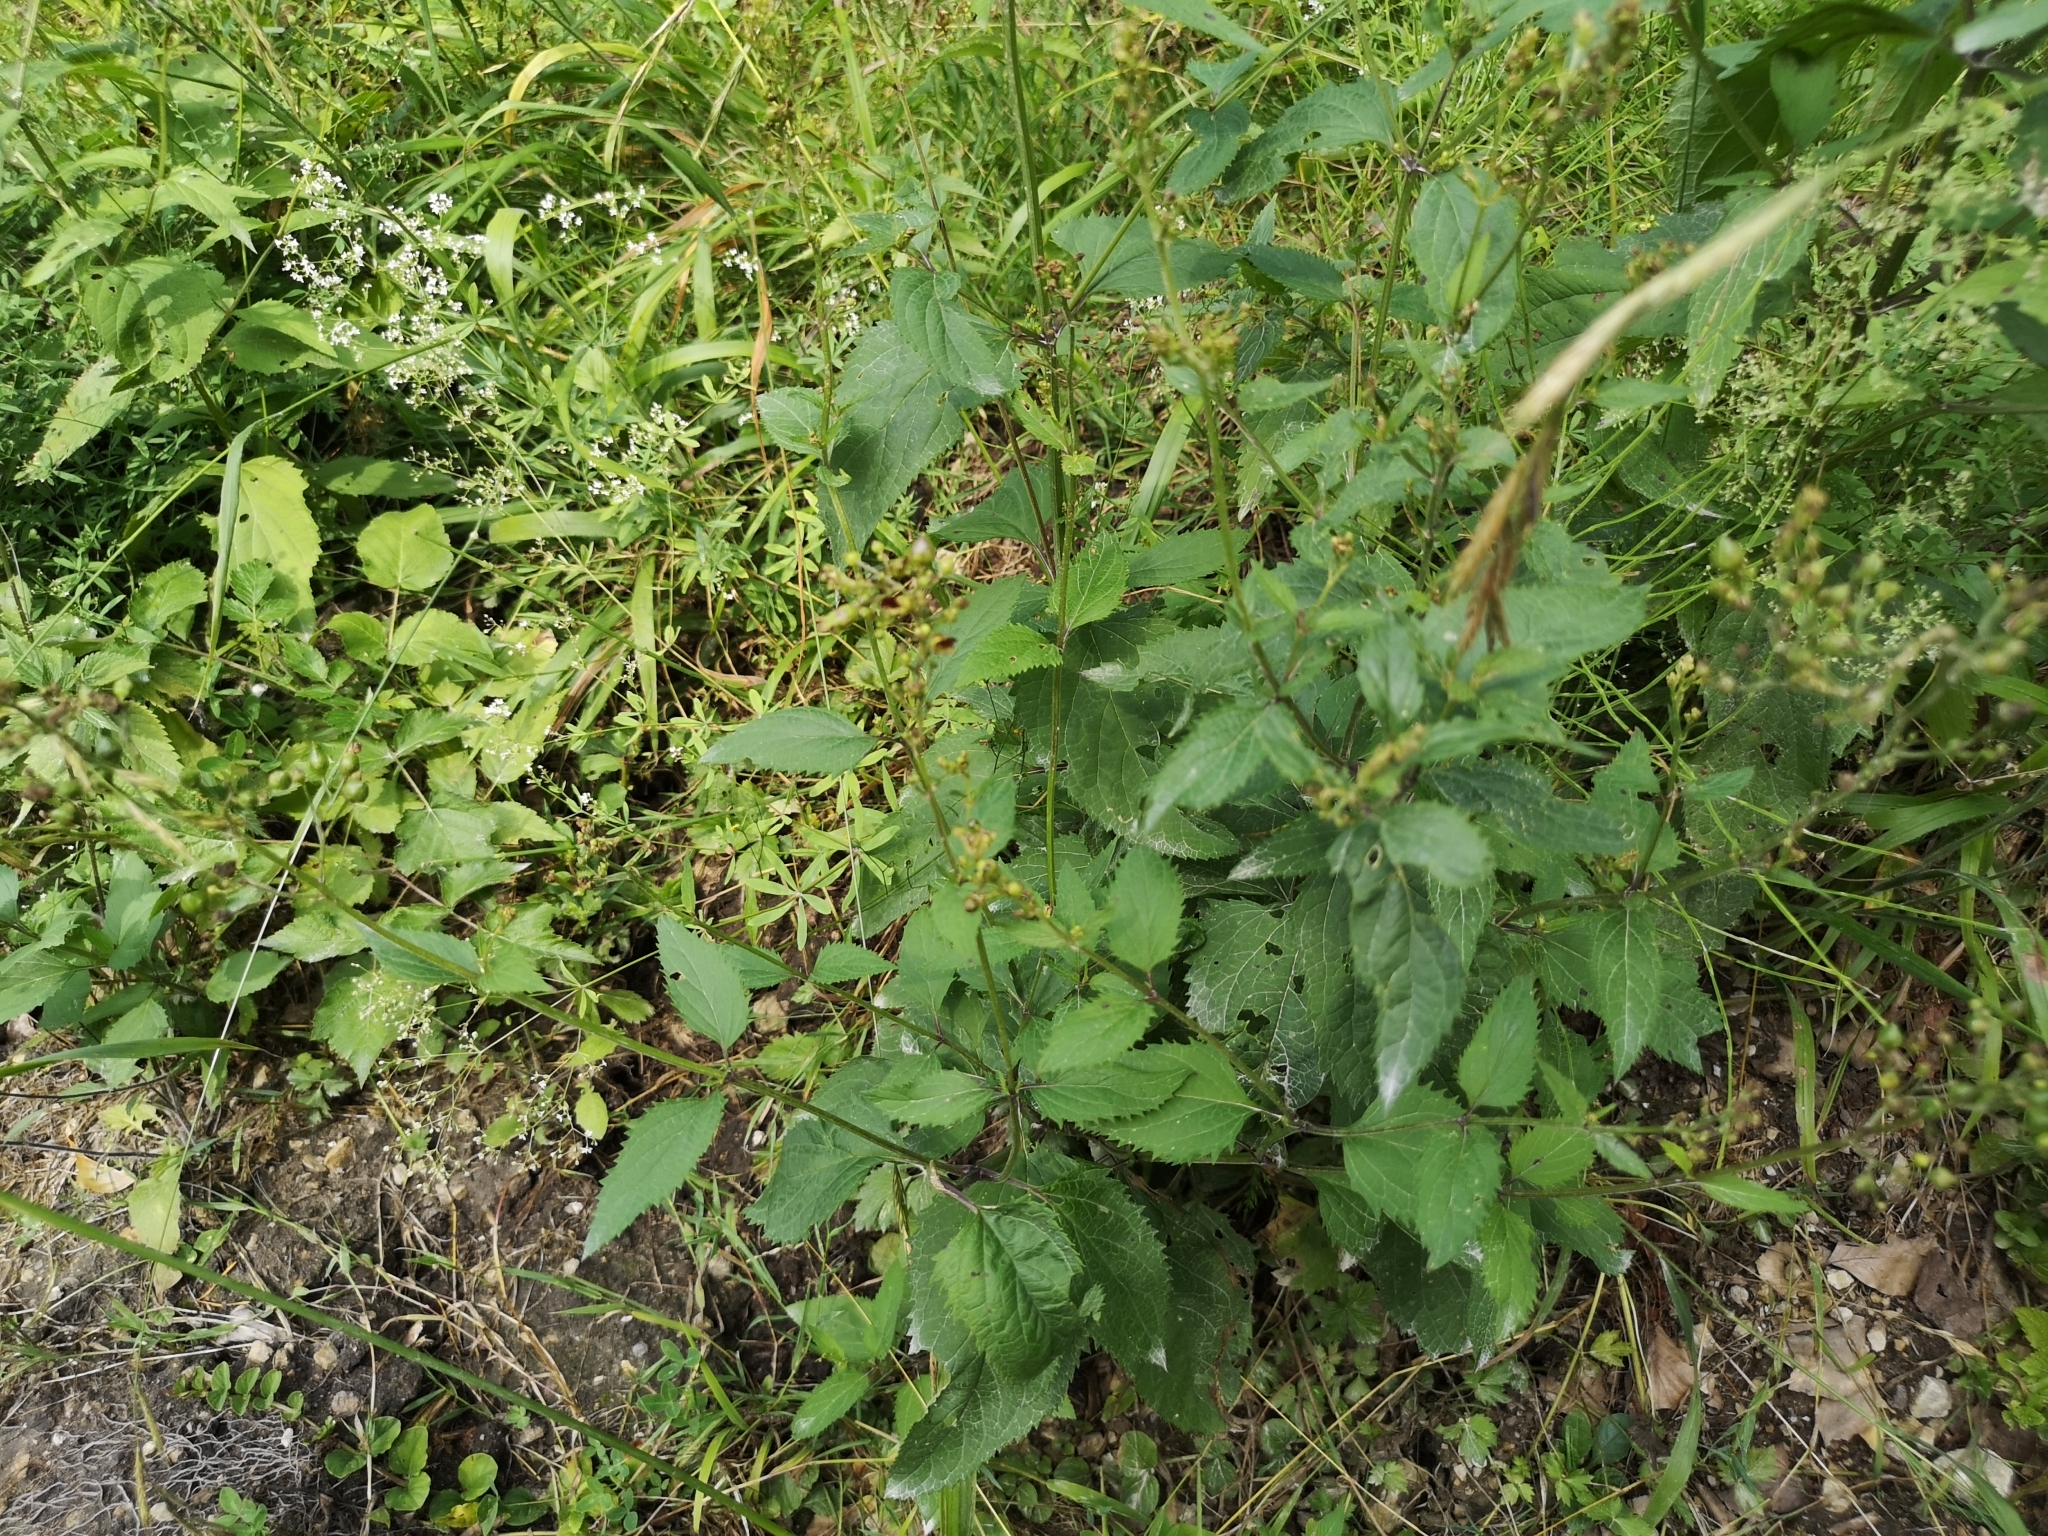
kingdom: Plantae
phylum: Tracheophyta
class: Magnoliopsida
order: Lamiales
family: Scrophulariaceae
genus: Scrophularia
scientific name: Scrophularia nodosa
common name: Common figwort
